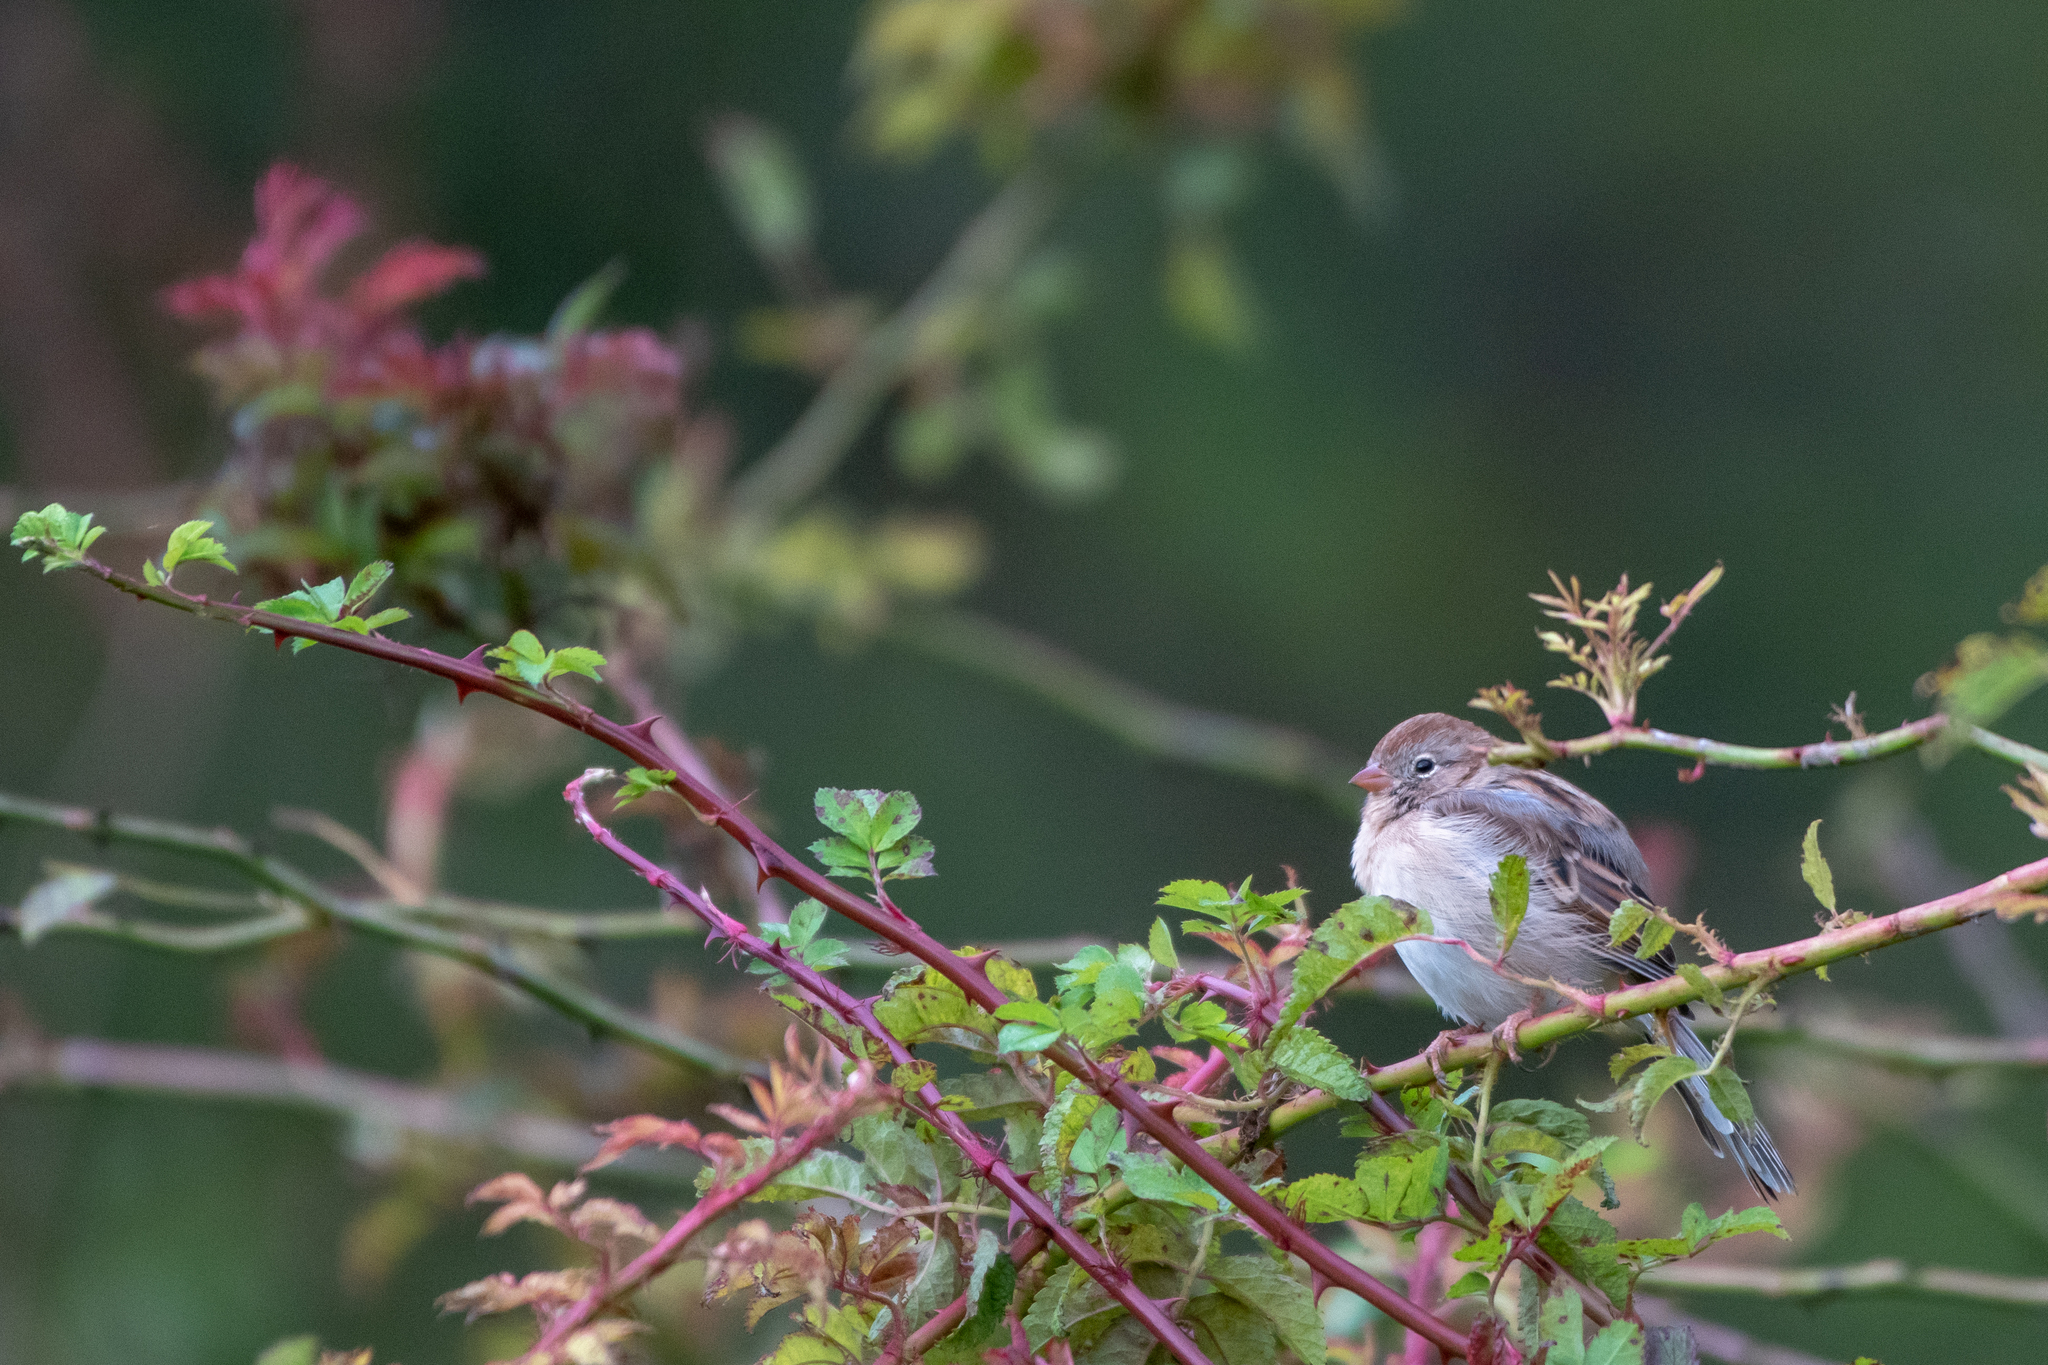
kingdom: Animalia
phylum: Chordata
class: Aves
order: Passeriformes
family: Passerellidae
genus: Spizella
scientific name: Spizella pusilla
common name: Field sparrow
